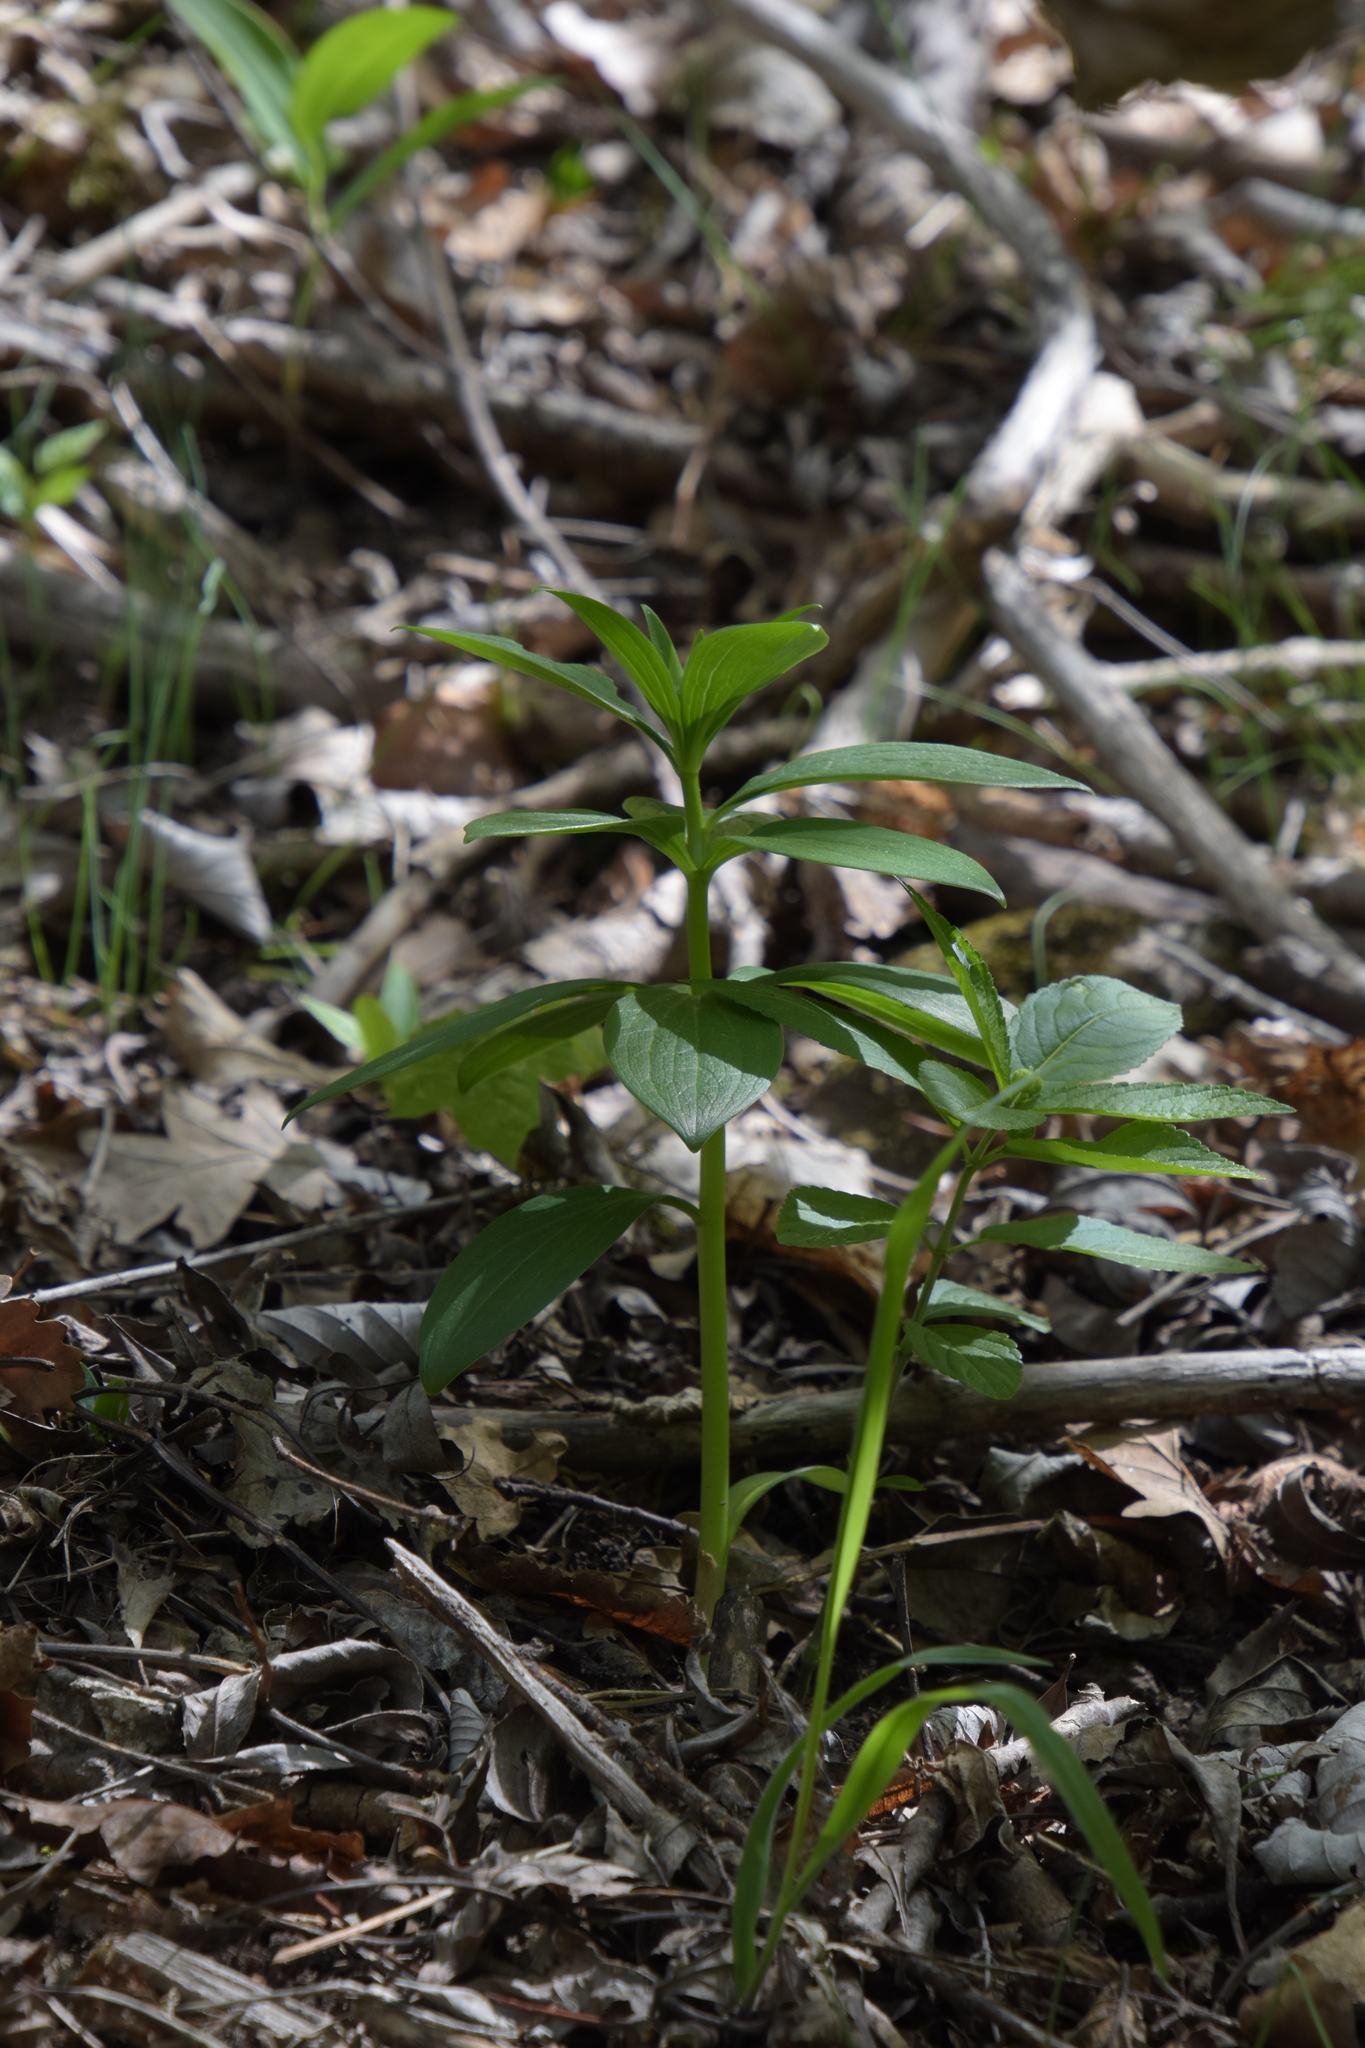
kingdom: Plantae
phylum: Tracheophyta
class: Liliopsida
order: Liliales
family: Liliaceae
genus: Lilium
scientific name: Lilium martagon
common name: Martagon lily
